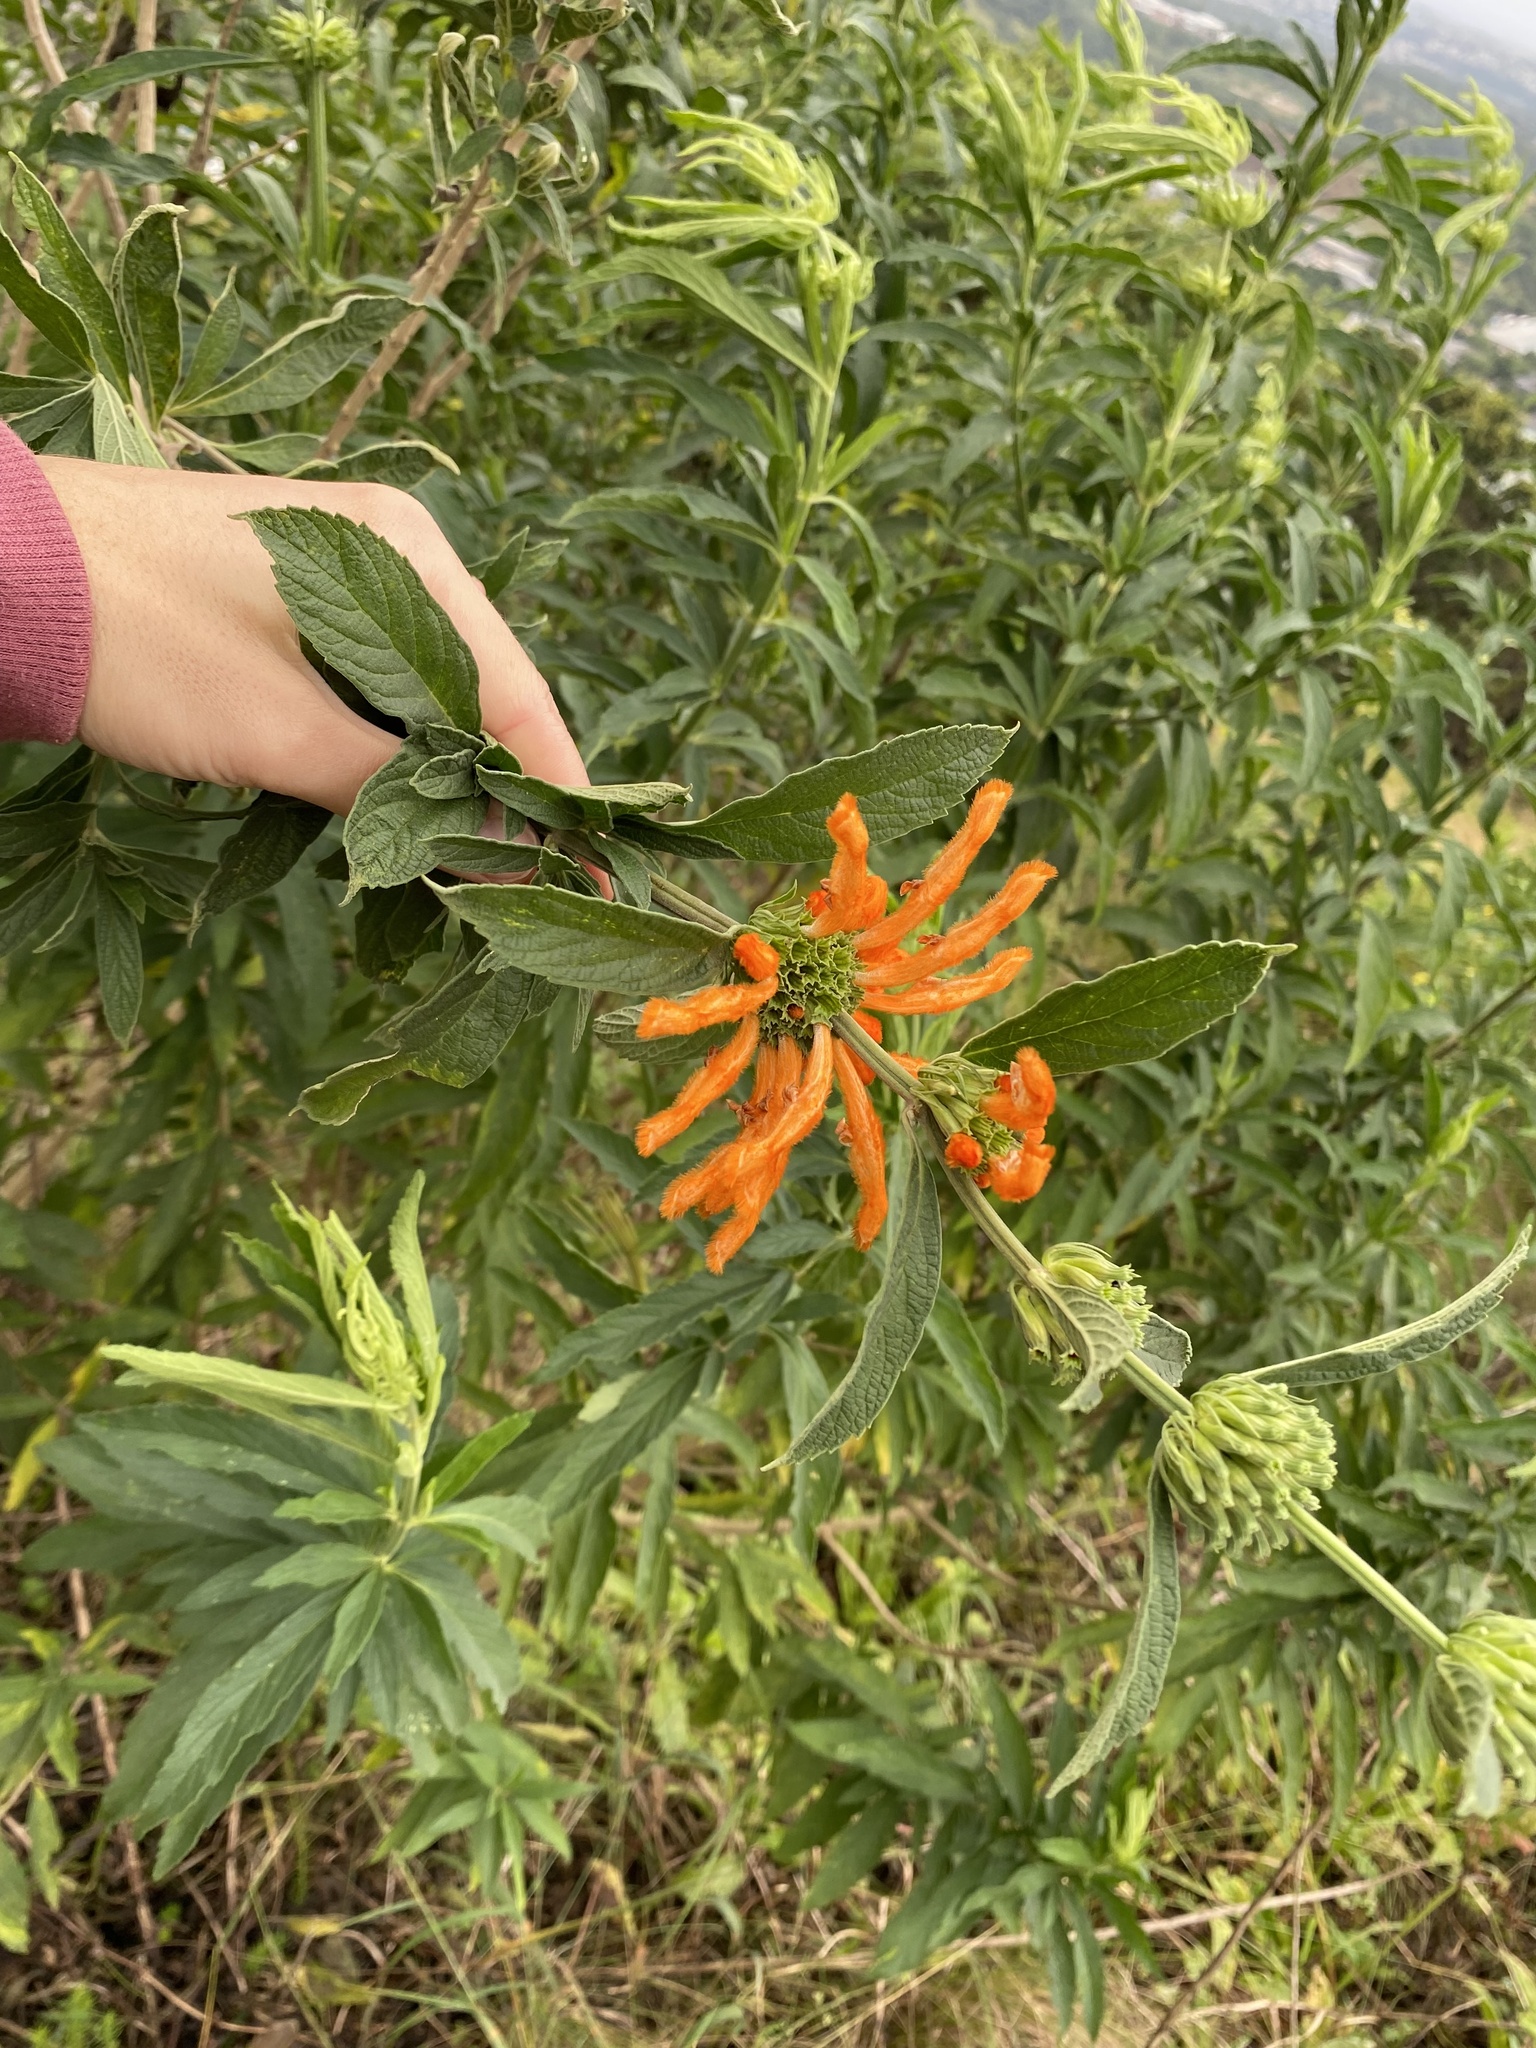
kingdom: Plantae
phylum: Tracheophyta
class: Magnoliopsida
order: Lamiales
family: Lamiaceae
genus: Leonotis
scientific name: Leonotis leonurus
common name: Lion's ear
